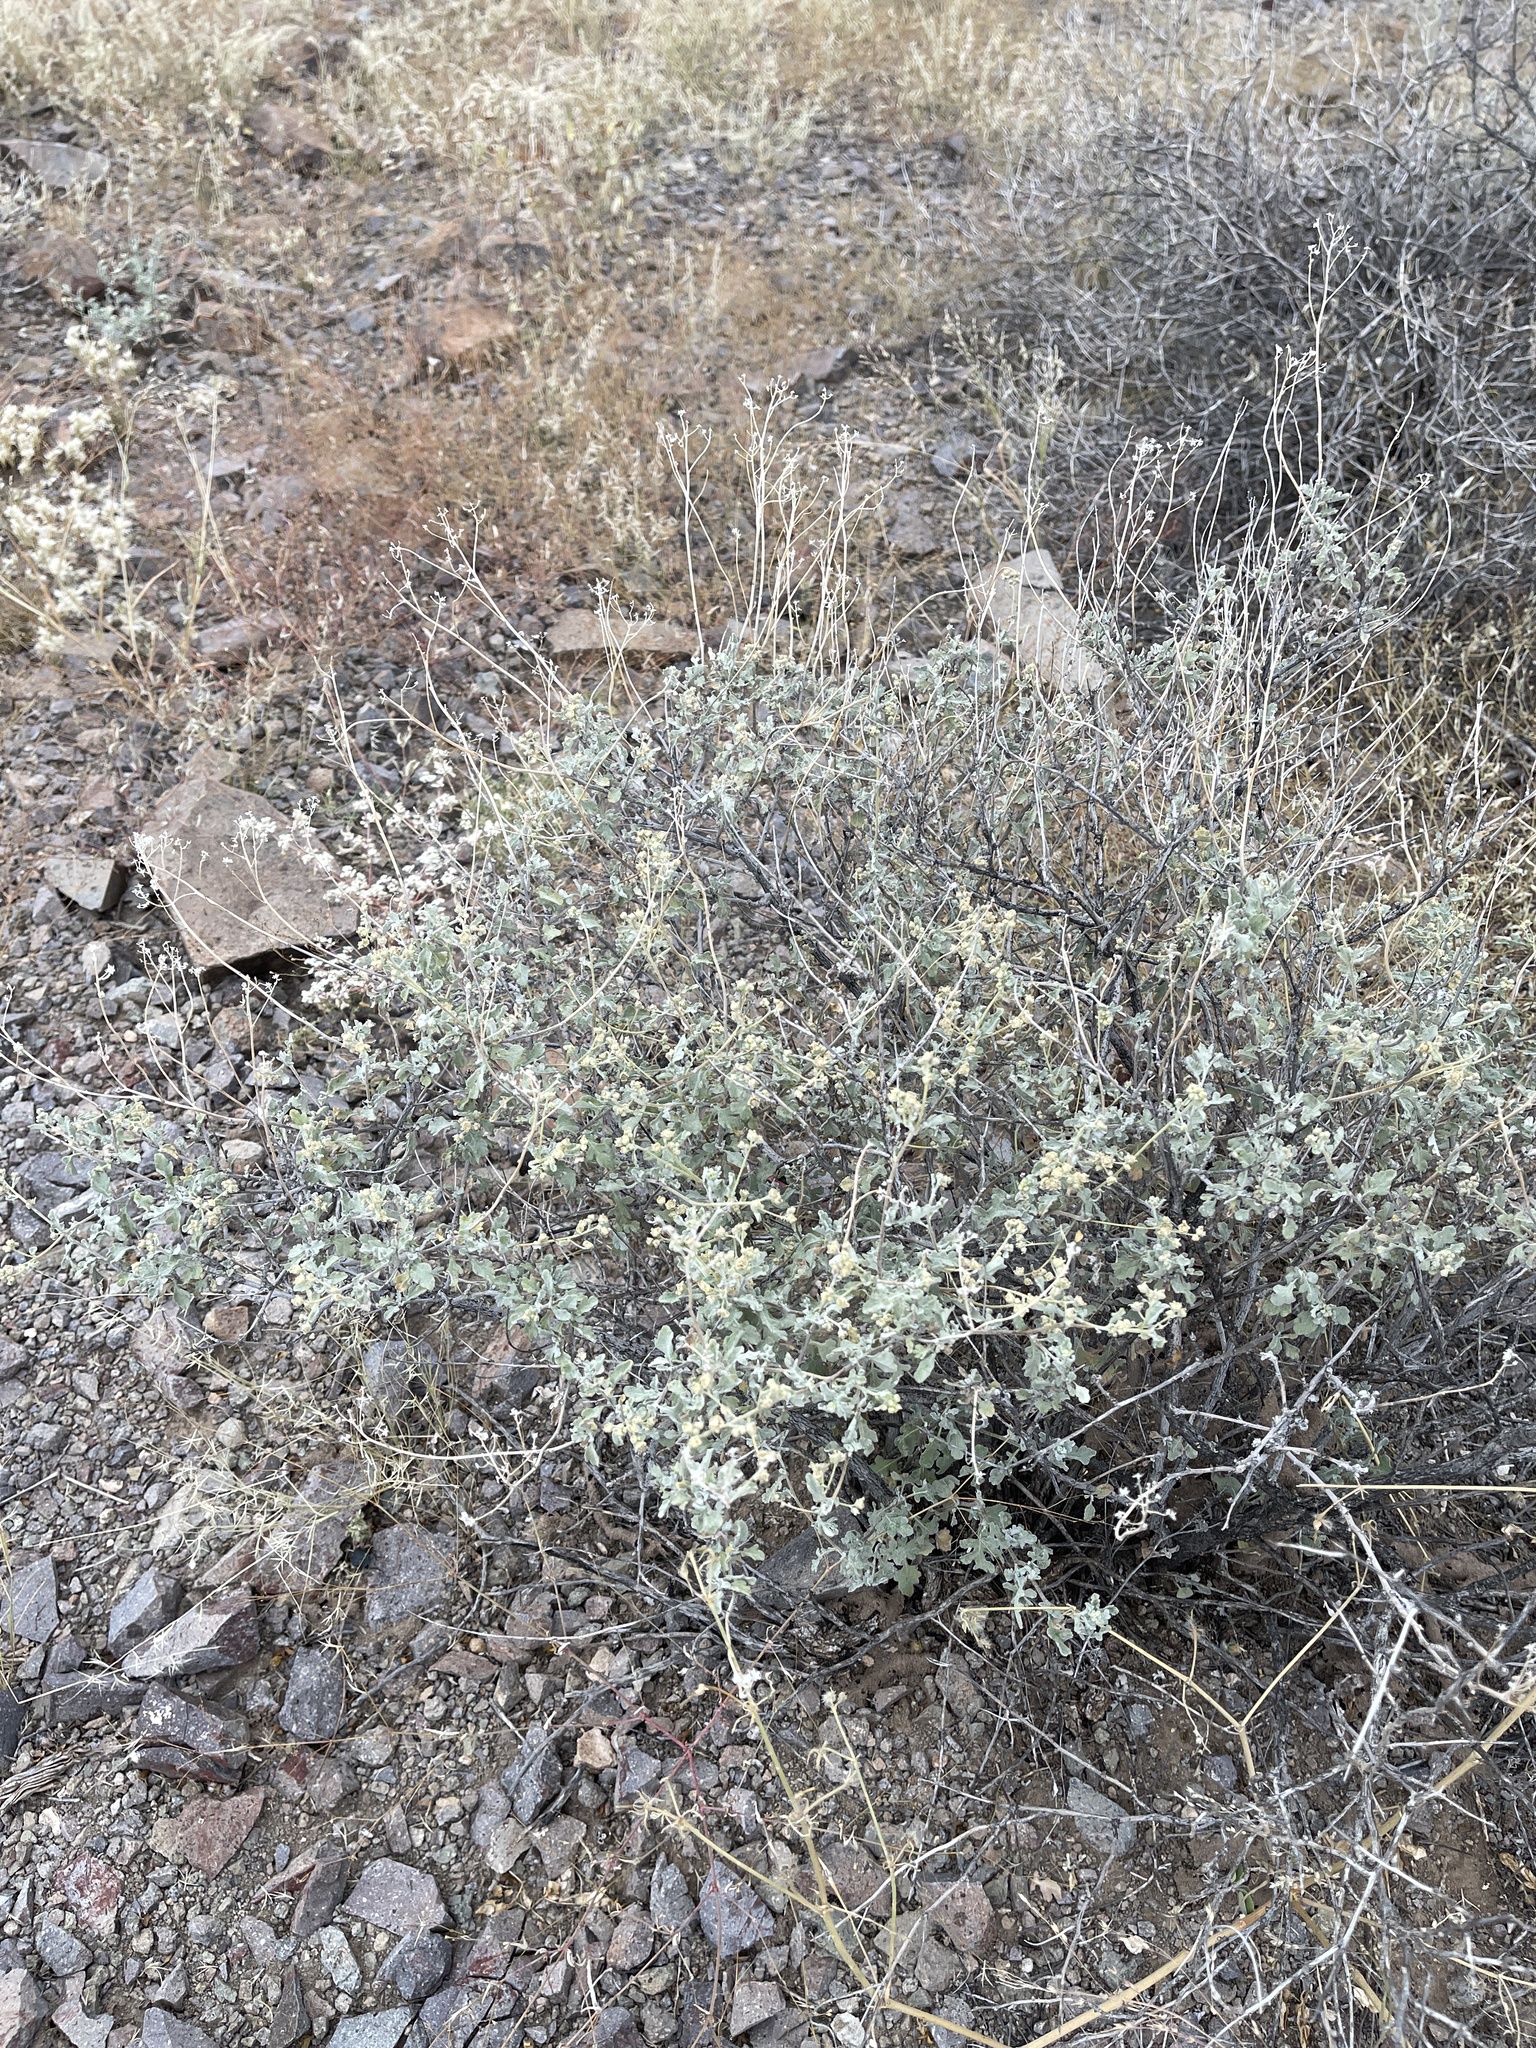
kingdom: Plantae
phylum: Tracheophyta
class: Magnoliopsida
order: Asterales
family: Asteraceae
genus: Parthenium
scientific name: Parthenium incanum
